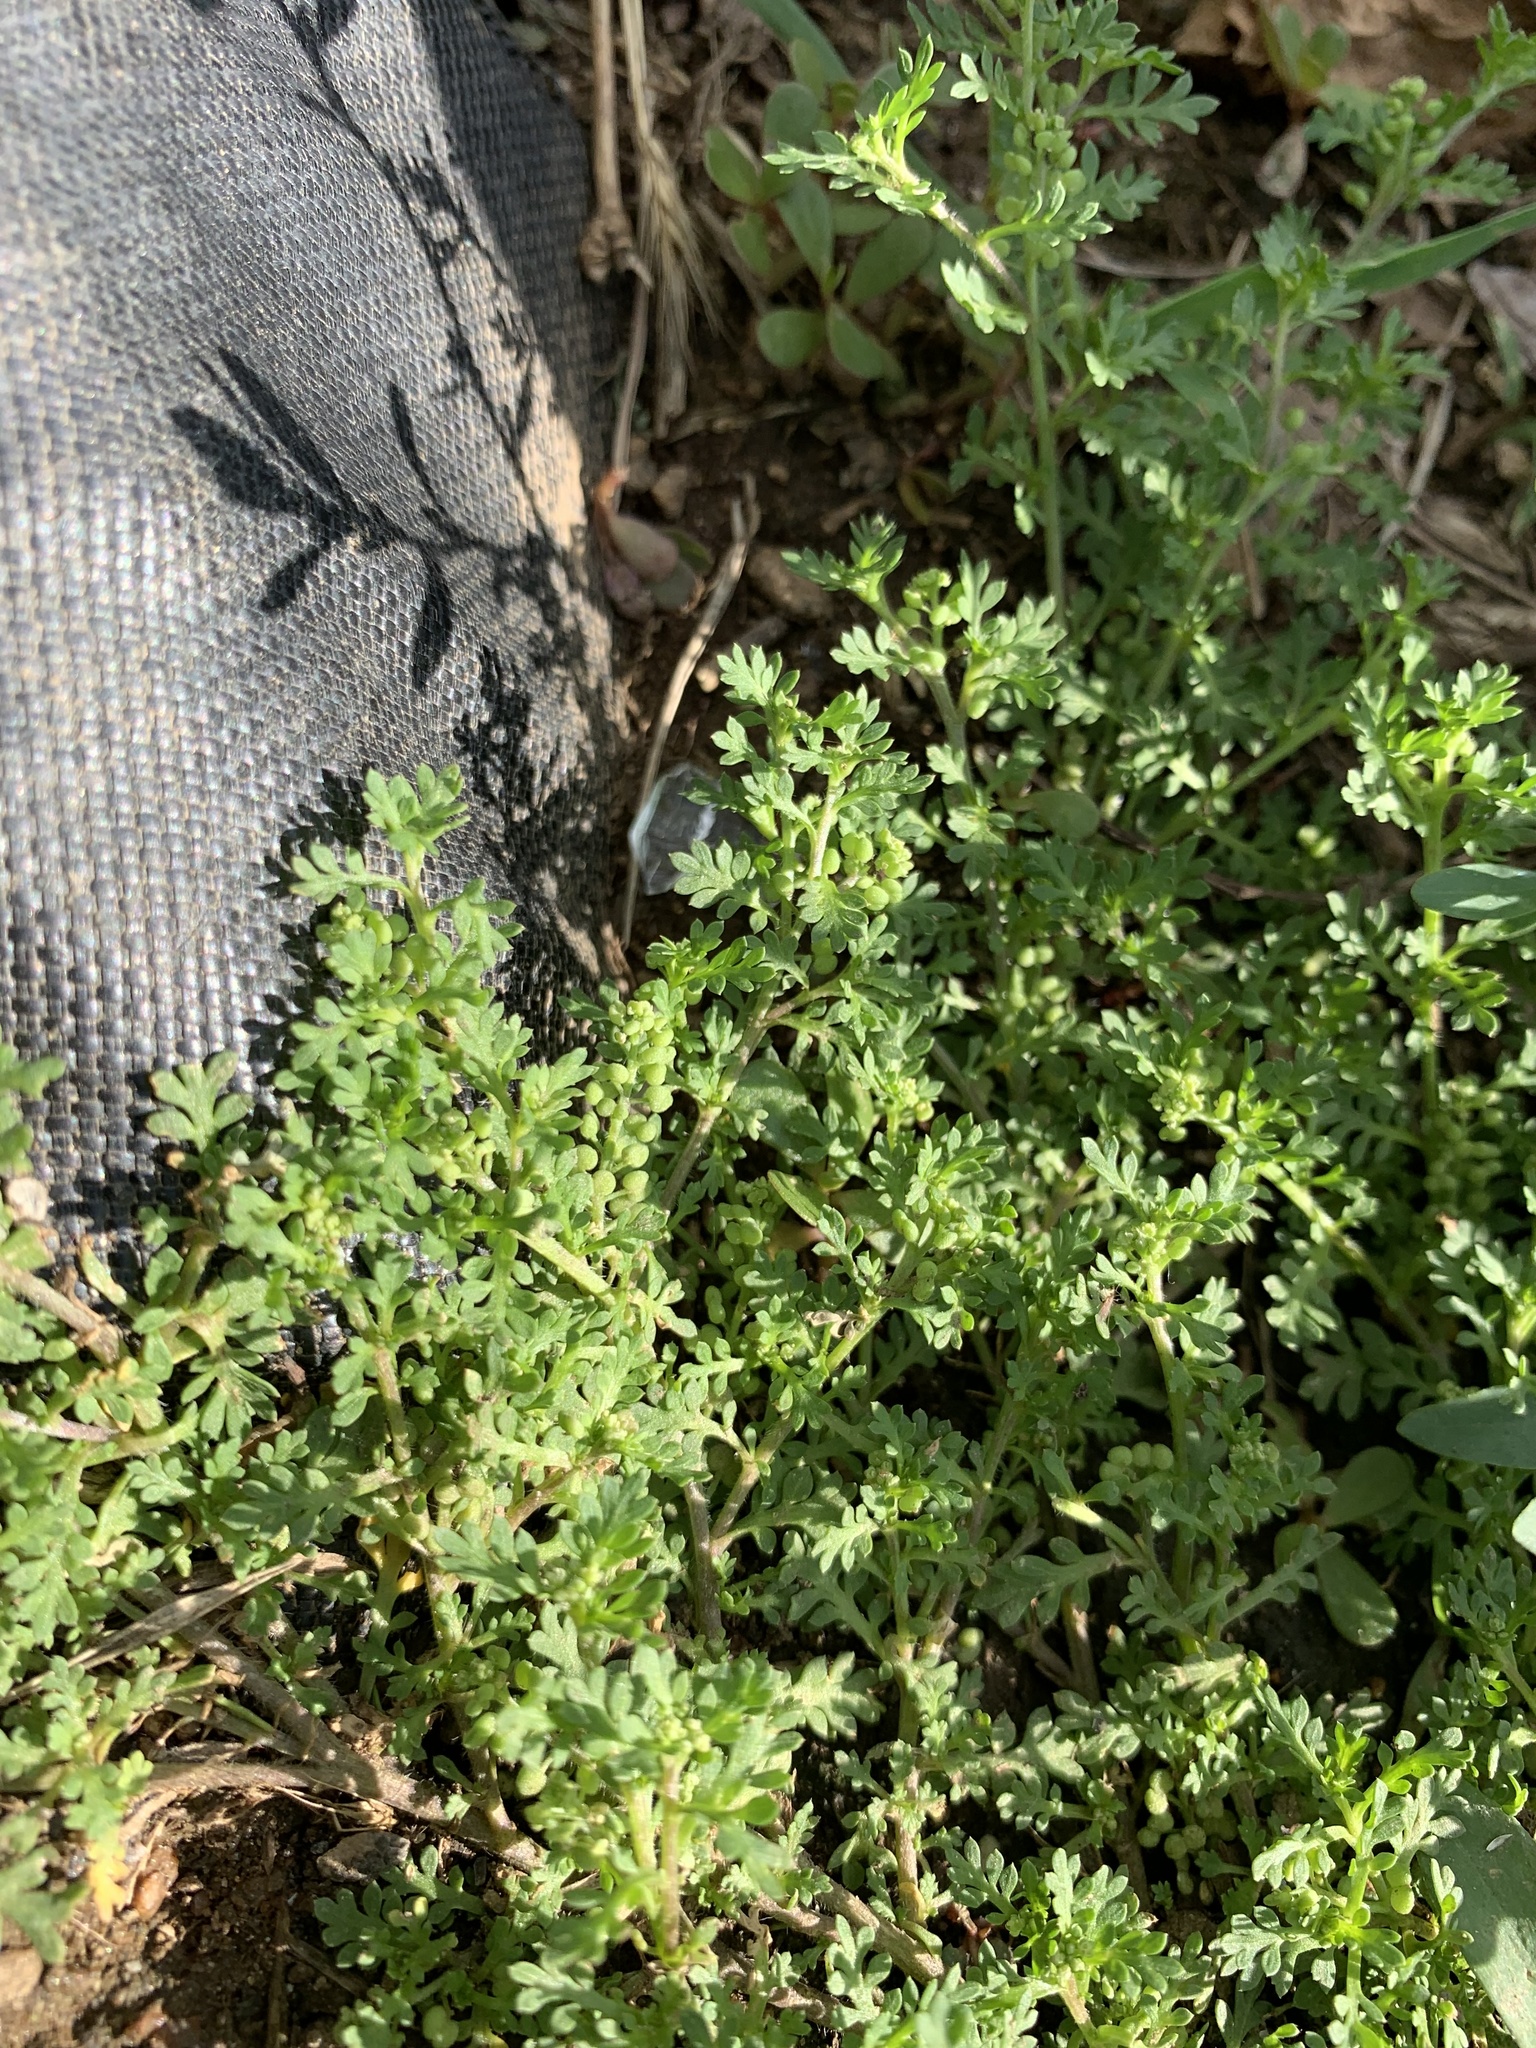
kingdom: Plantae
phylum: Tracheophyta
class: Magnoliopsida
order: Brassicales
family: Brassicaceae
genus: Lepidium
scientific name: Lepidium didymum
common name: Lesser swinecress
